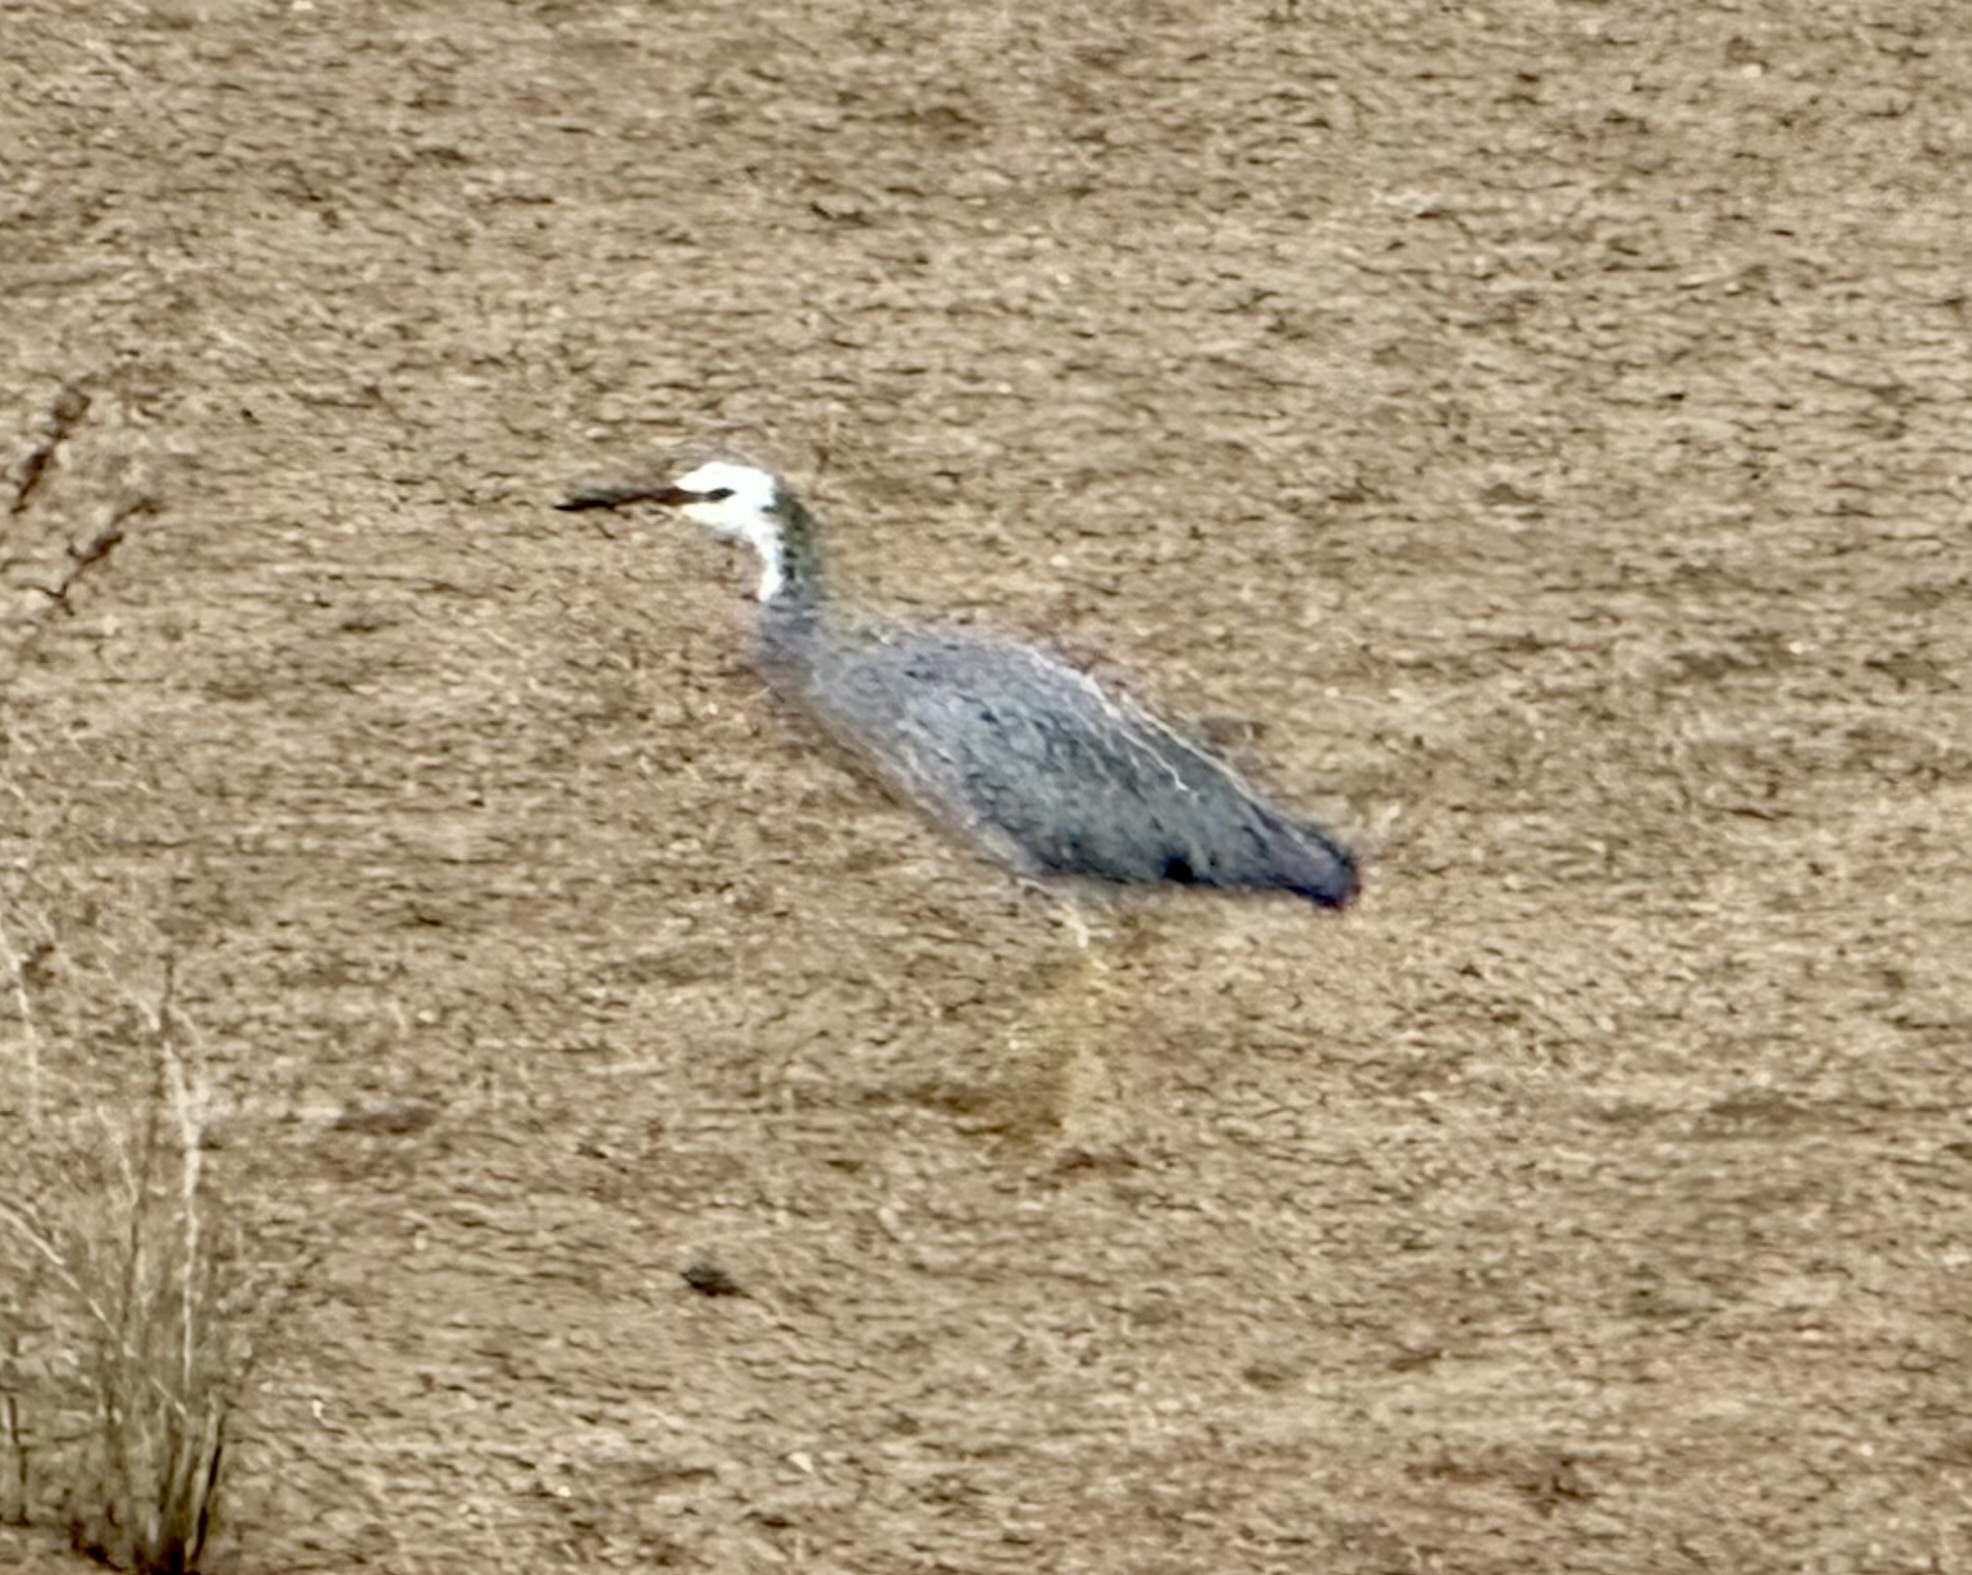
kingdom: Animalia
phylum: Chordata
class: Aves
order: Pelecaniformes
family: Ardeidae
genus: Egretta
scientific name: Egretta novaehollandiae
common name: White-faced heron
